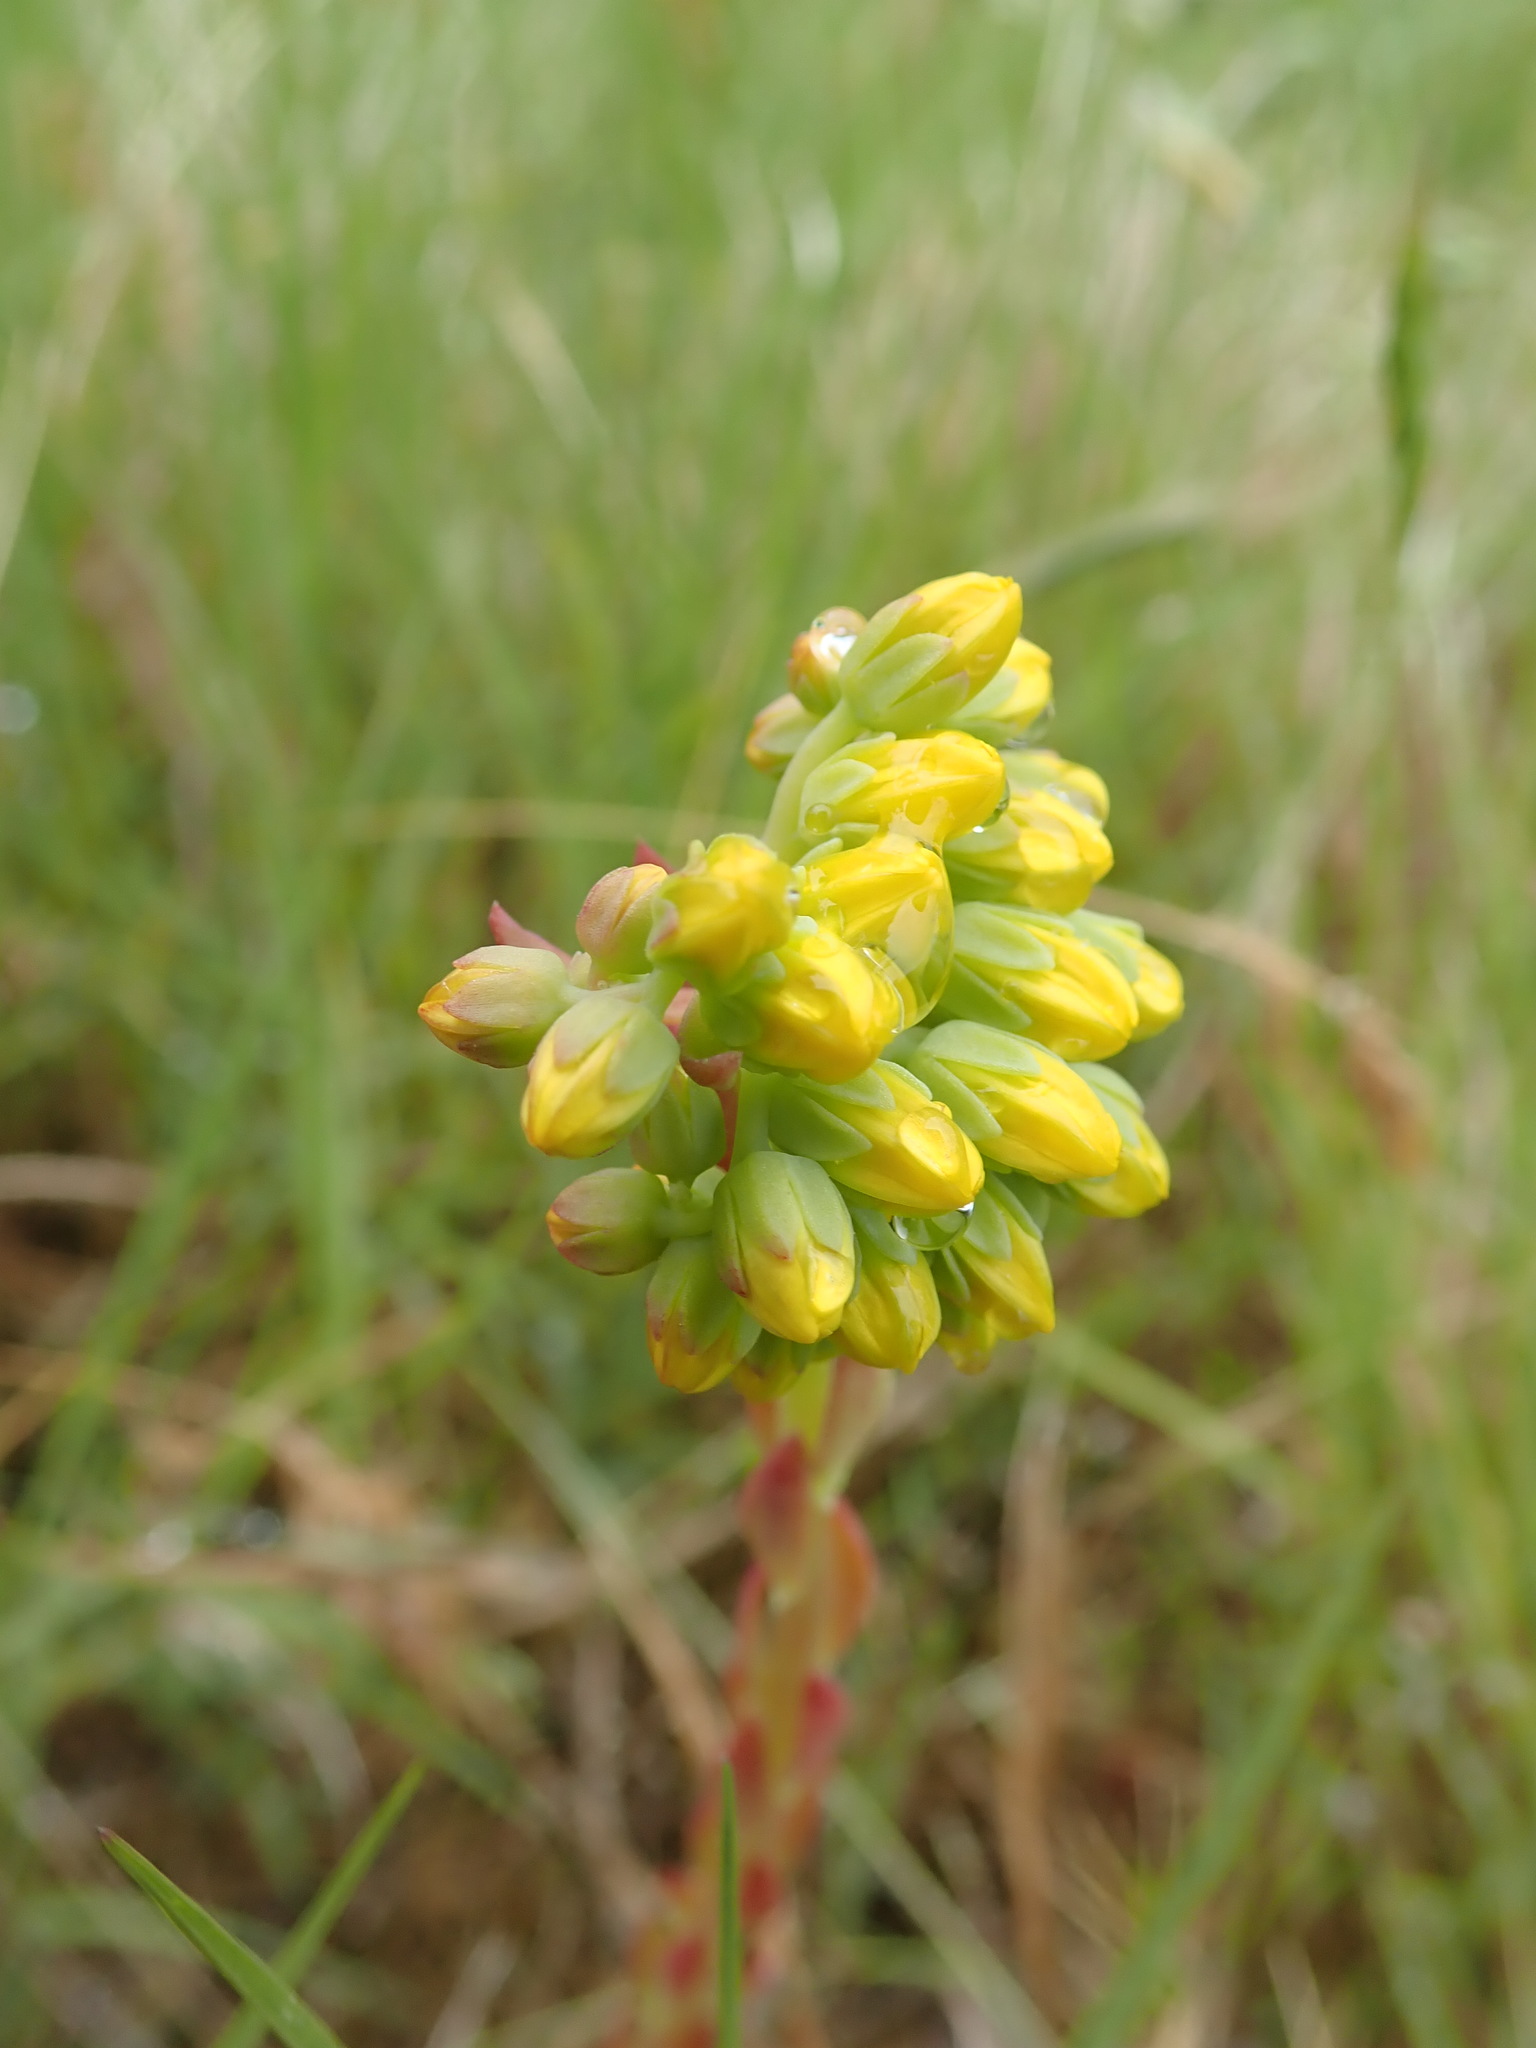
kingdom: Plantae
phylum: Tracheophyta
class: Magnoliopsida
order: Saxifragales
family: Crassulaceae
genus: Petrosedum
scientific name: Petrosedum forsterianum
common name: Forster's stonecrop
